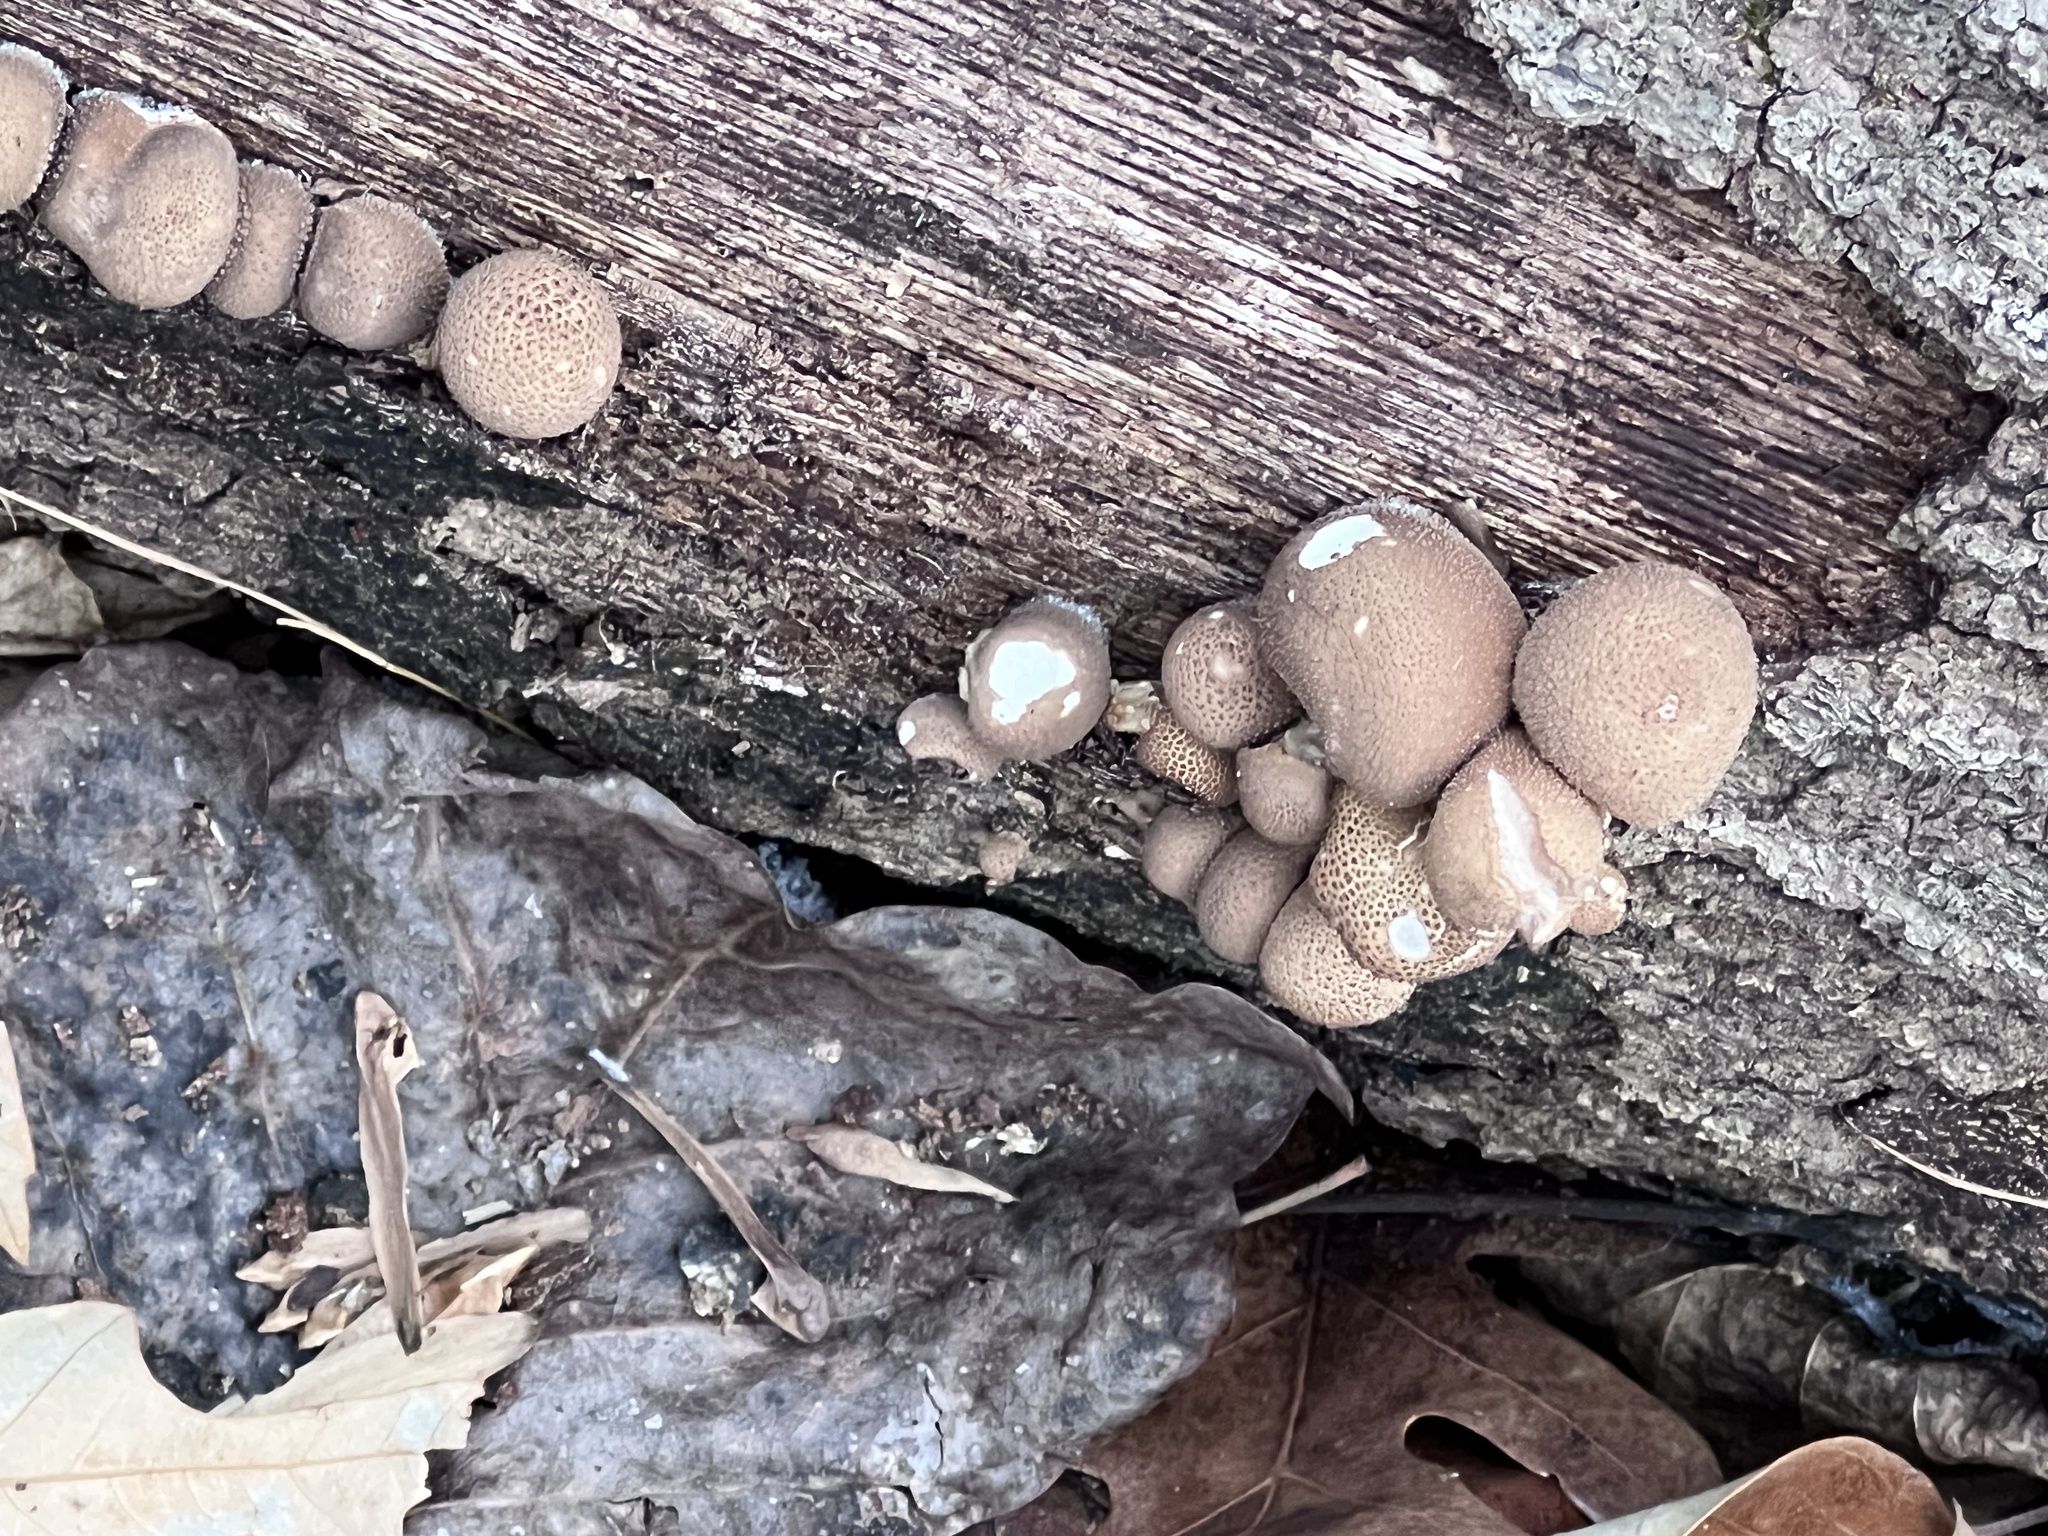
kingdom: Fungi
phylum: Basidiomycota
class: Agaricomycetes
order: Agaricales
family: Lycoperdaceae
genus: Apioperdon
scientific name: Apioperdon pyriforme
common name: Pear-shaped puffball
